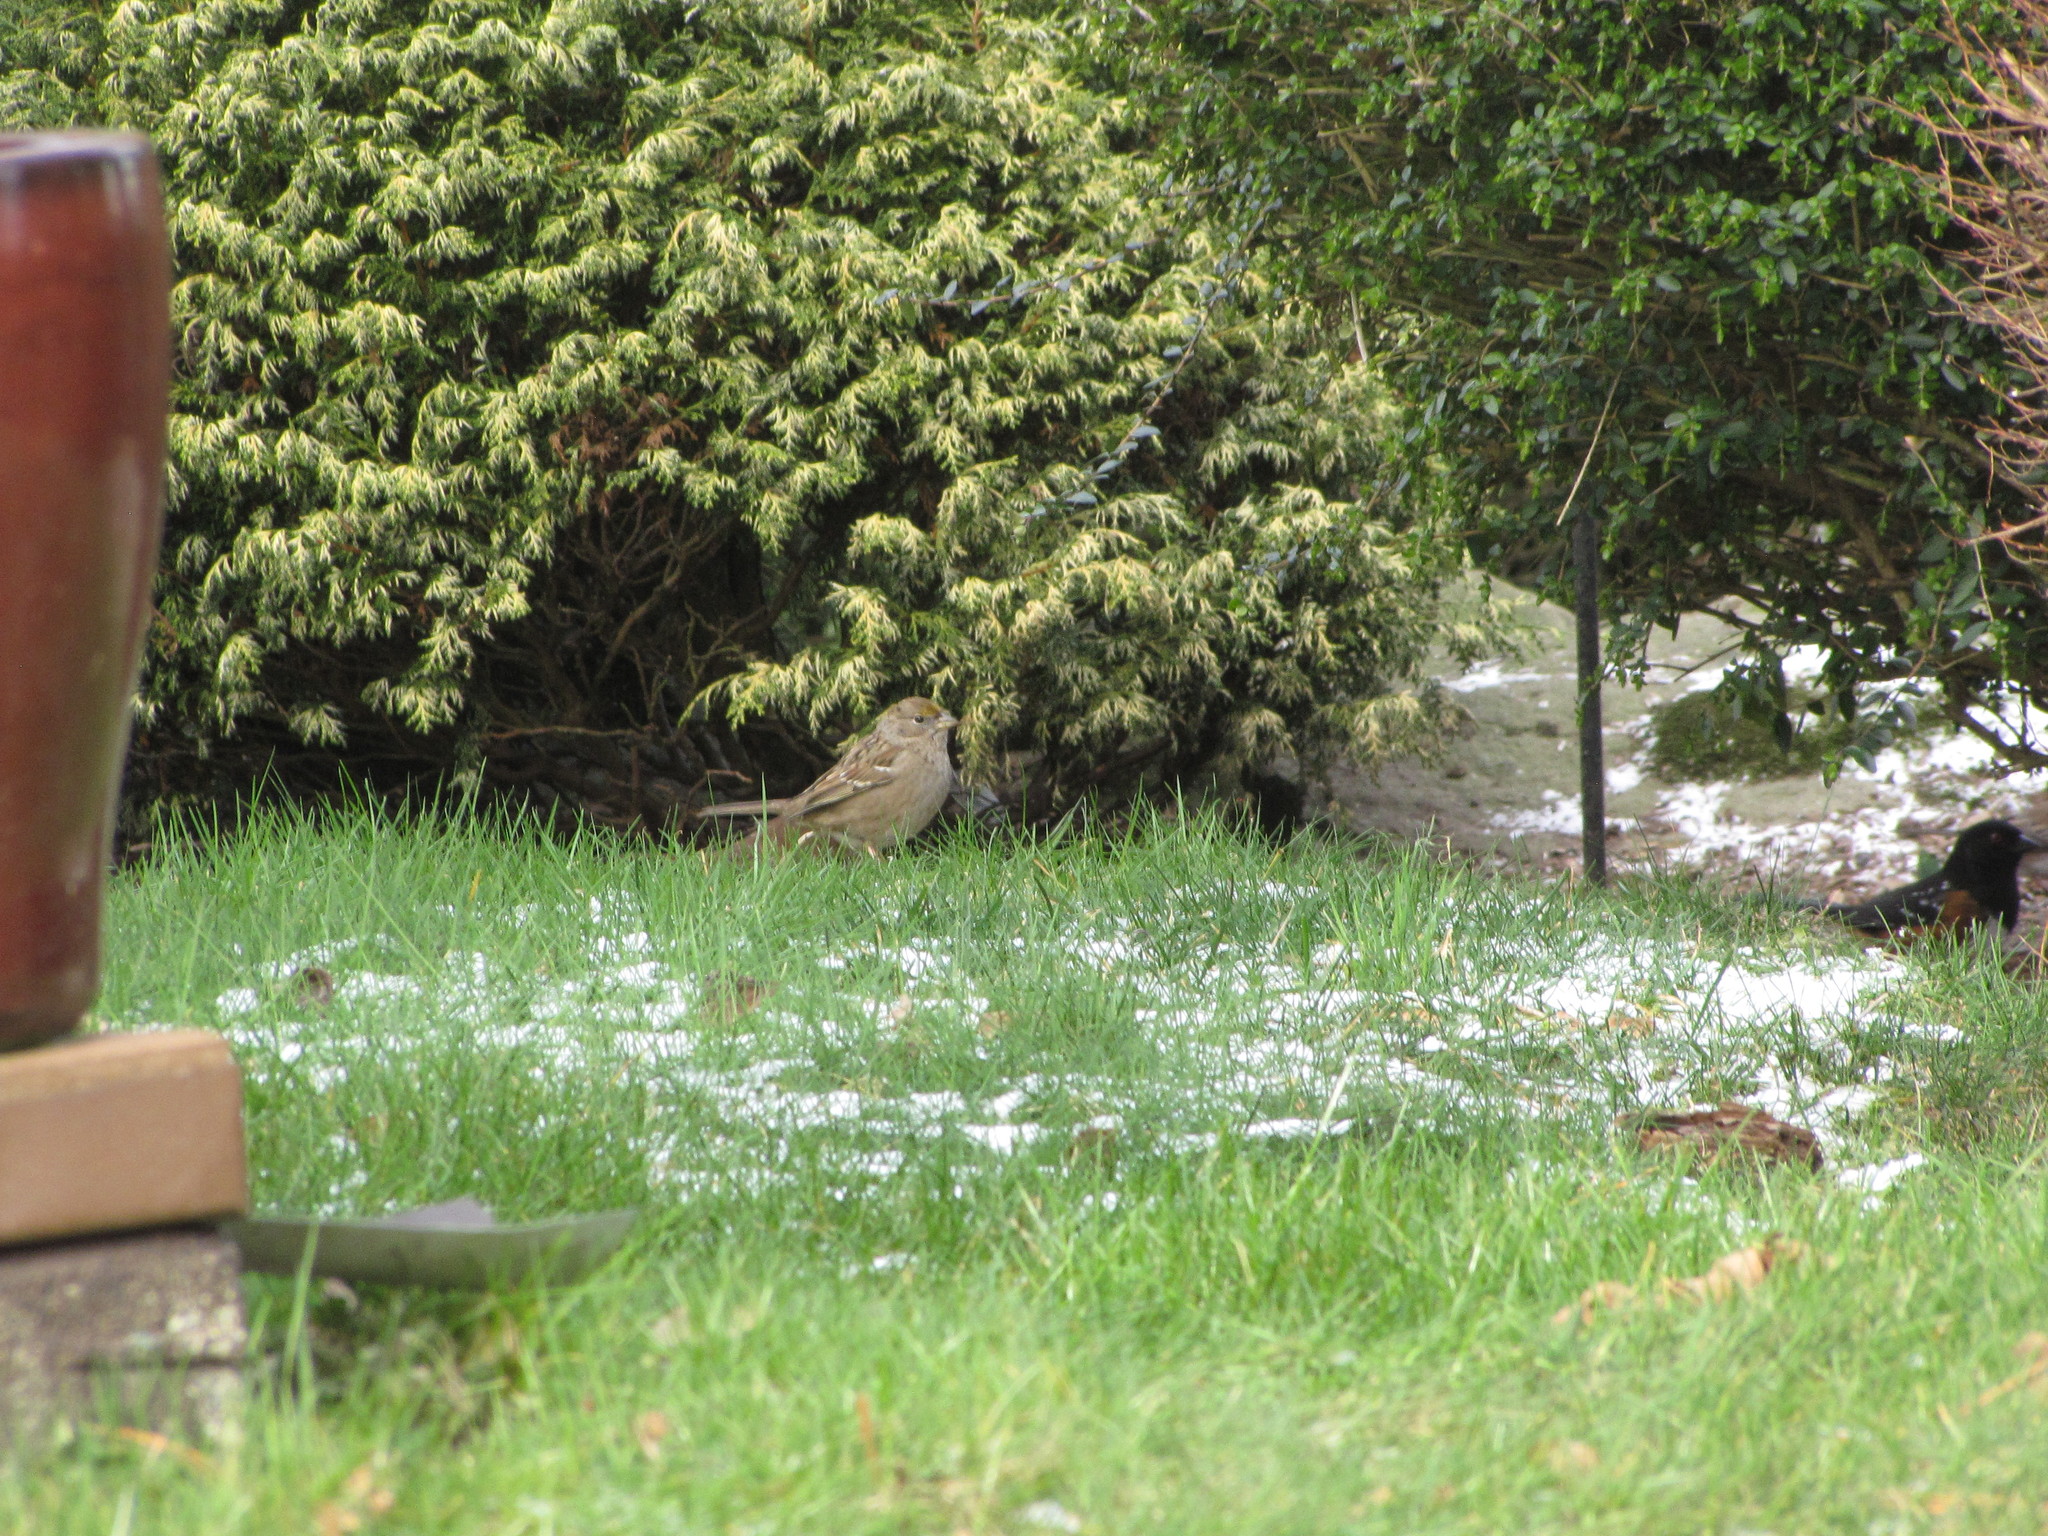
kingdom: Animalia
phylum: Chordata
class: Aves
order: Passeriformes
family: Passerellidae
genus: Zonotrichia
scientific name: Zonotrichia atricapilla
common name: Golden-crowned sparrow
